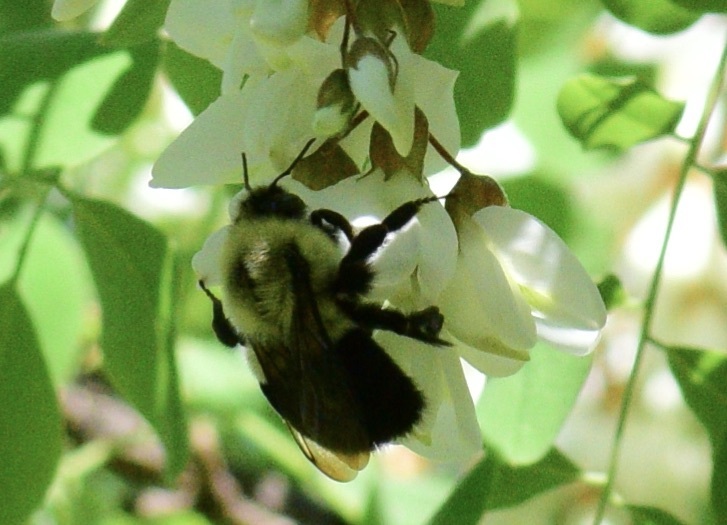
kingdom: Animalia
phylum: Arthropoda
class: Insecta
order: Hymenoptera
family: Apidae
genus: Bombus
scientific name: Bombus impatiens
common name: Common eastern bumble bee
